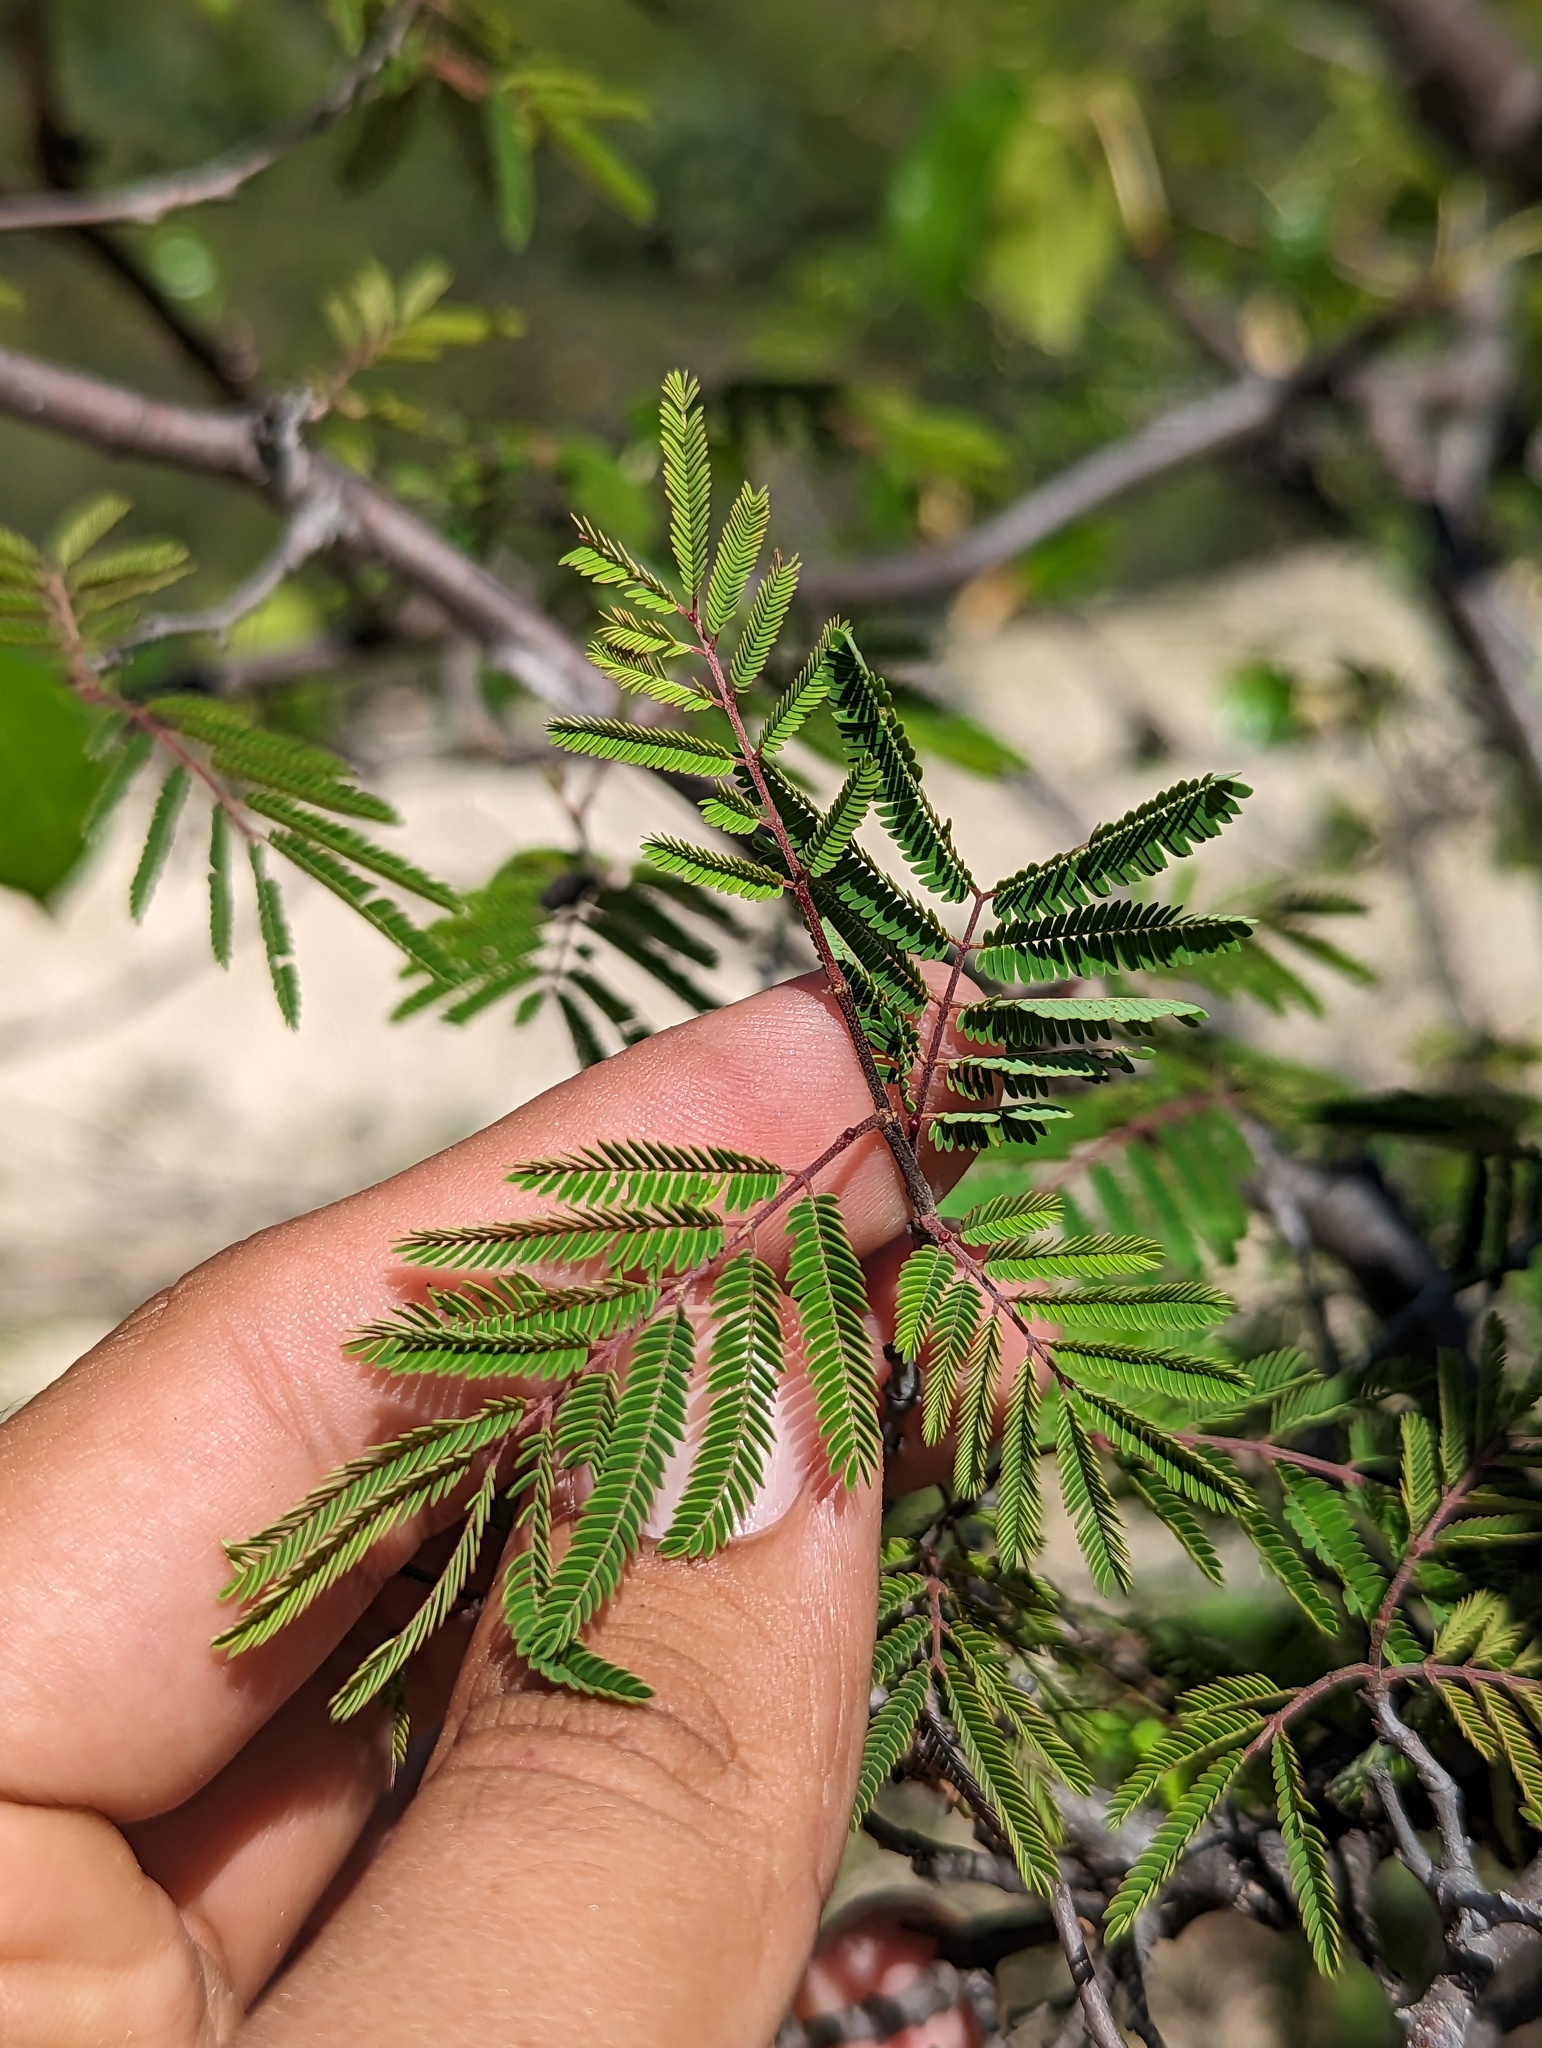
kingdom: Plantae
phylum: Tracheophyta
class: Magnoliopsida
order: Fabales
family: Fabaceae
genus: Lysiloma
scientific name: Lysiloma divaricatum
